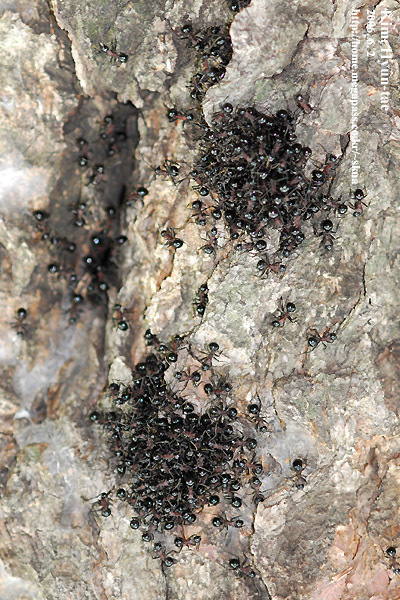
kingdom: Animalia
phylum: Arthropoda
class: Insecta
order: Hymenoptera
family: Formicidae
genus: Polyrhachis
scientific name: Polyrhachis lamellidens
